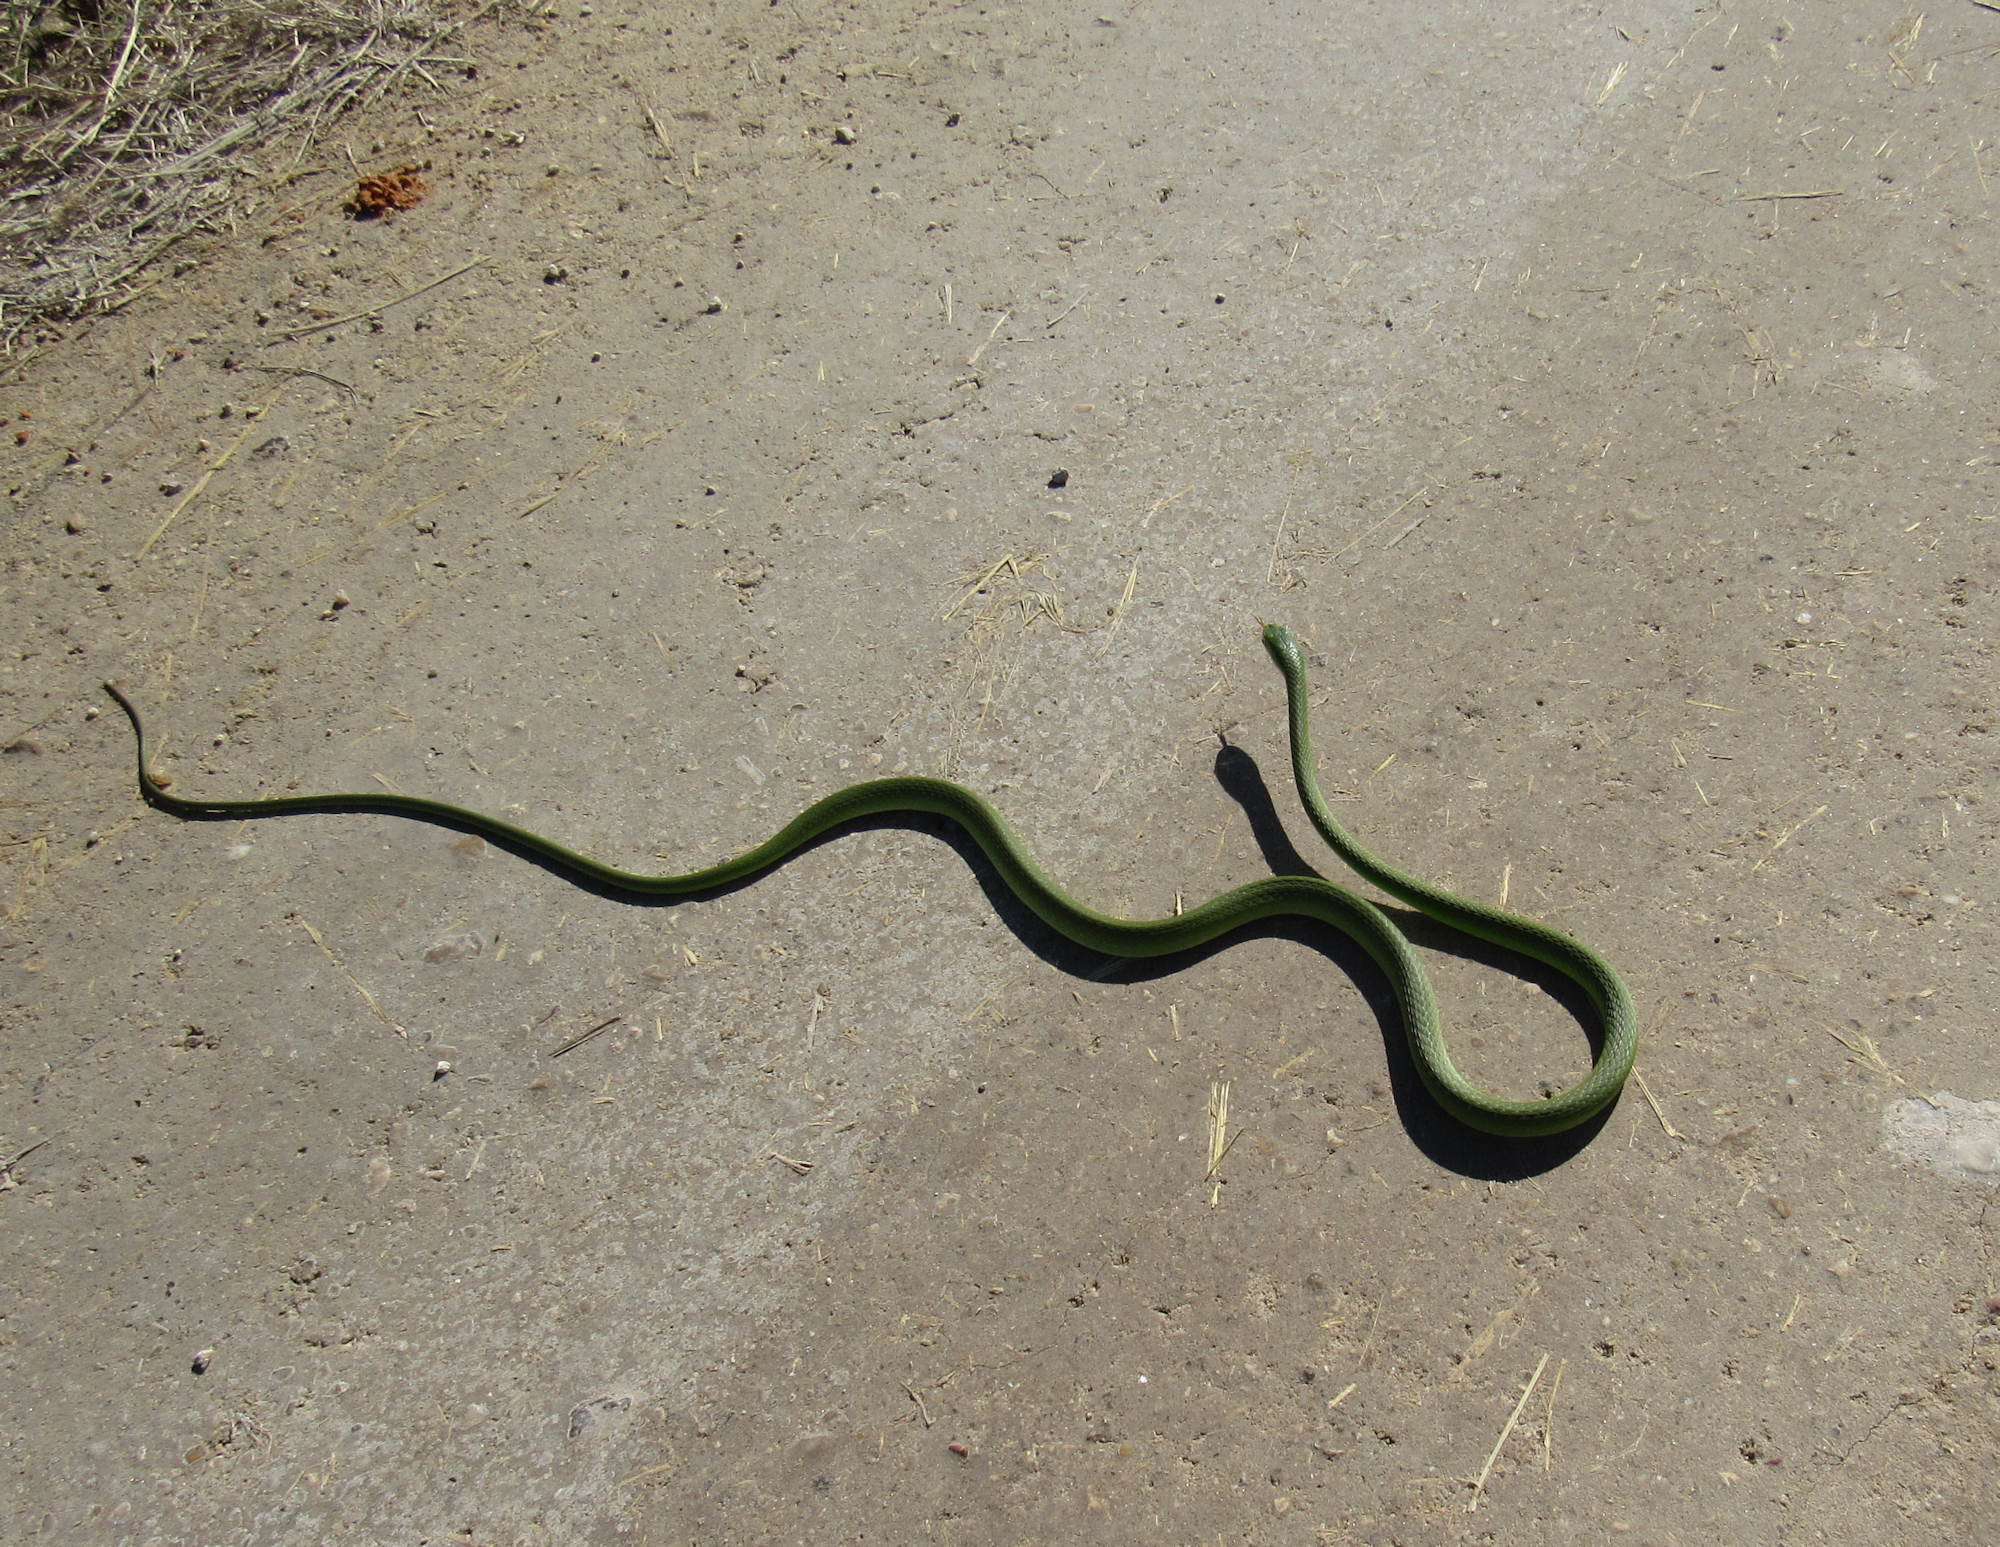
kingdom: Animalia
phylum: Chordata
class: Squamata
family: Colubridae
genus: Opheodrys
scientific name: Opheodrys aestivus
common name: Rough greensnake
